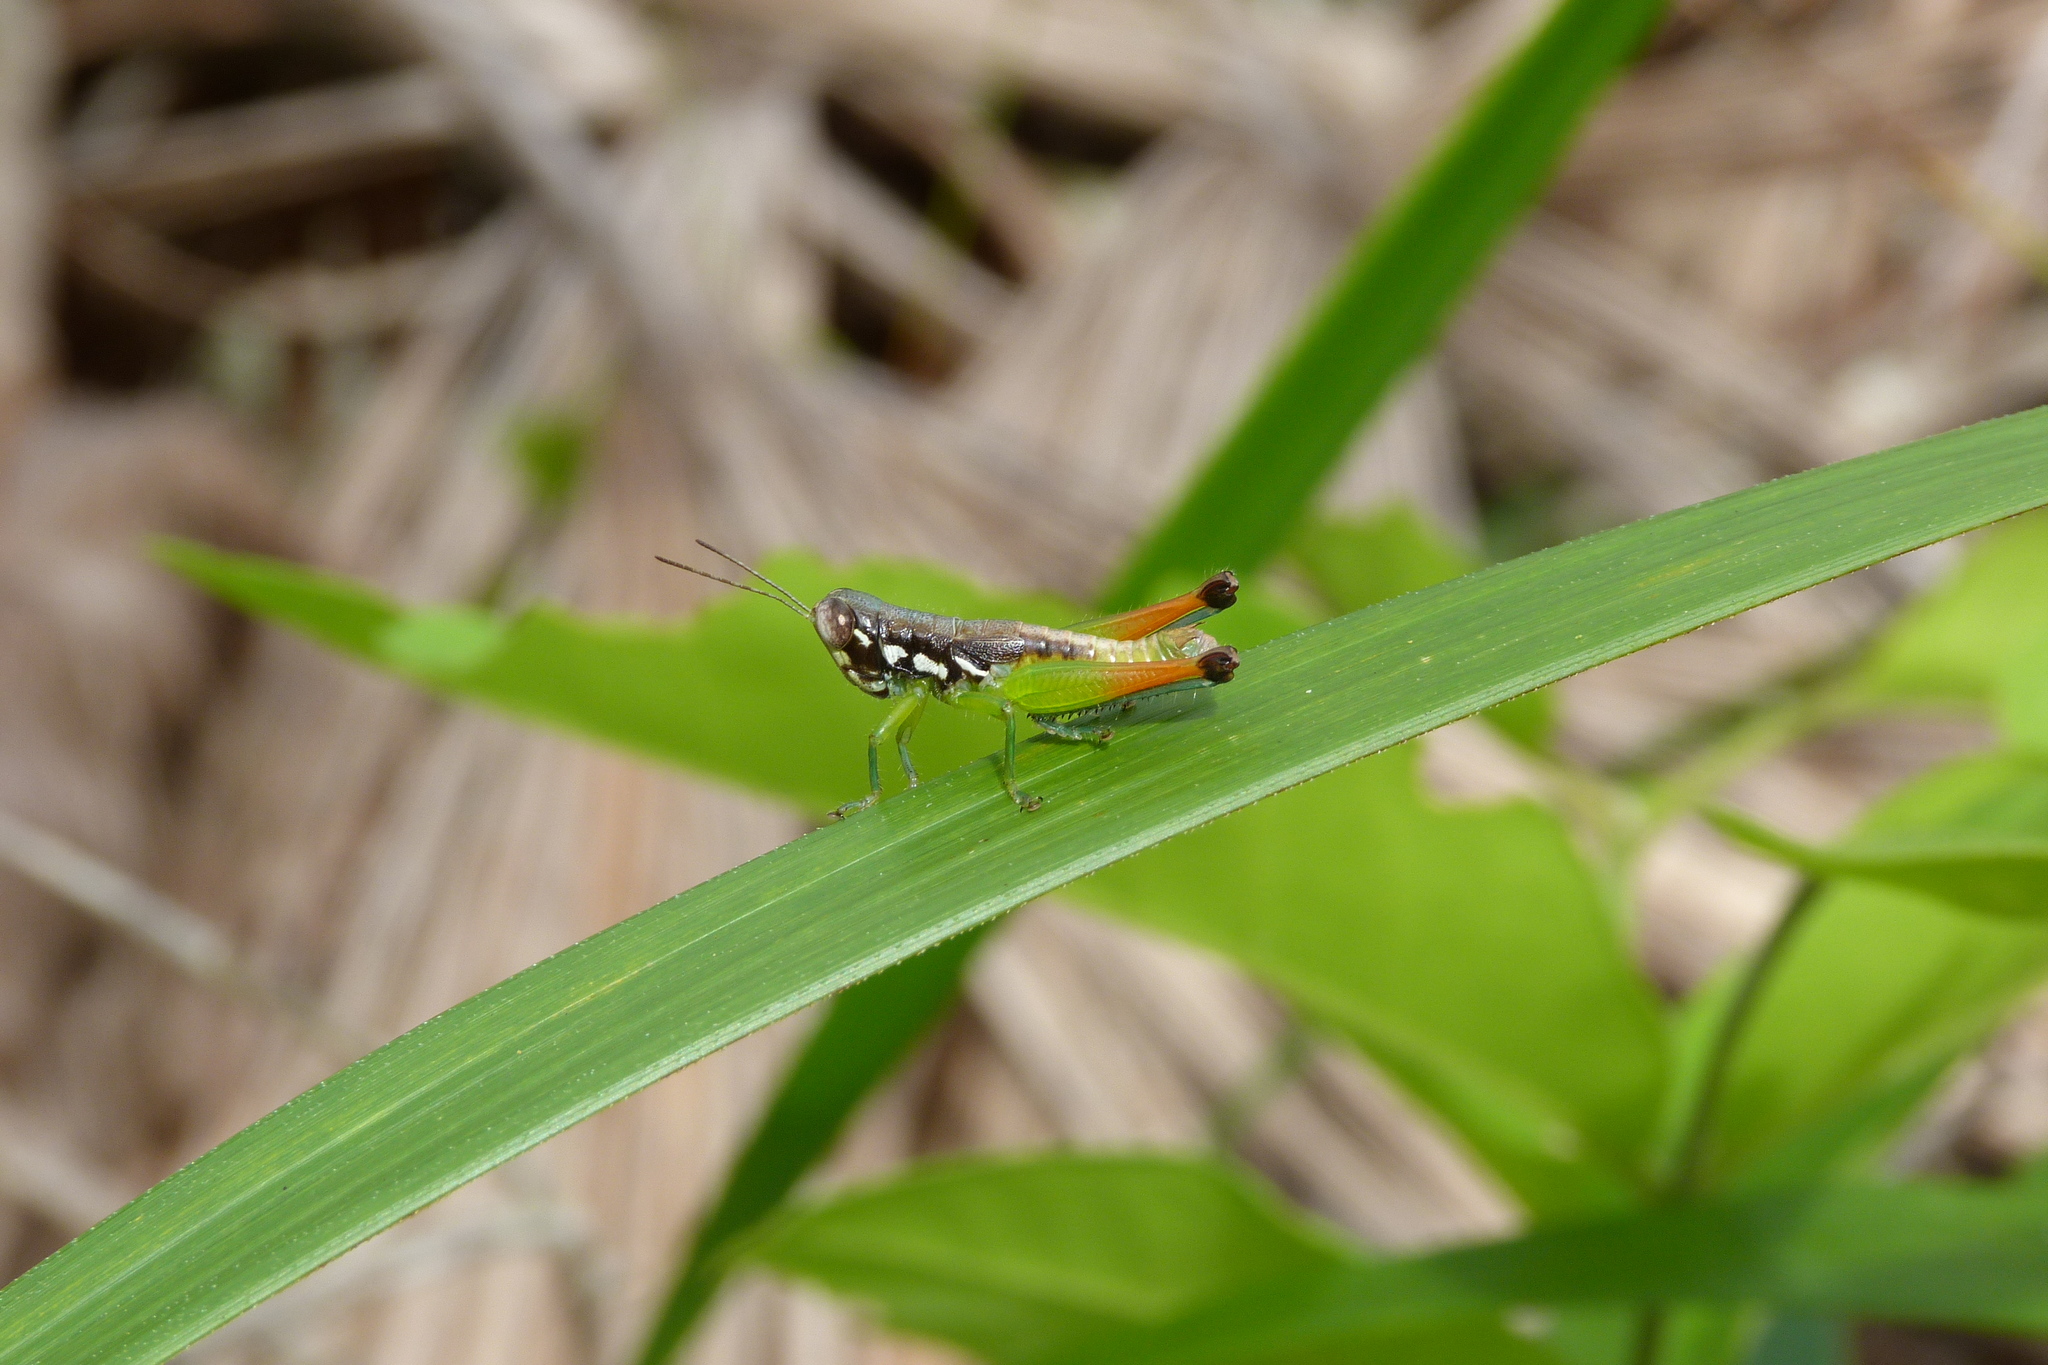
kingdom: Animalia
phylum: Arthropoda
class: Insecta
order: Orthoptera
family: Acrididae
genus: Methiola
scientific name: Methiola picta
